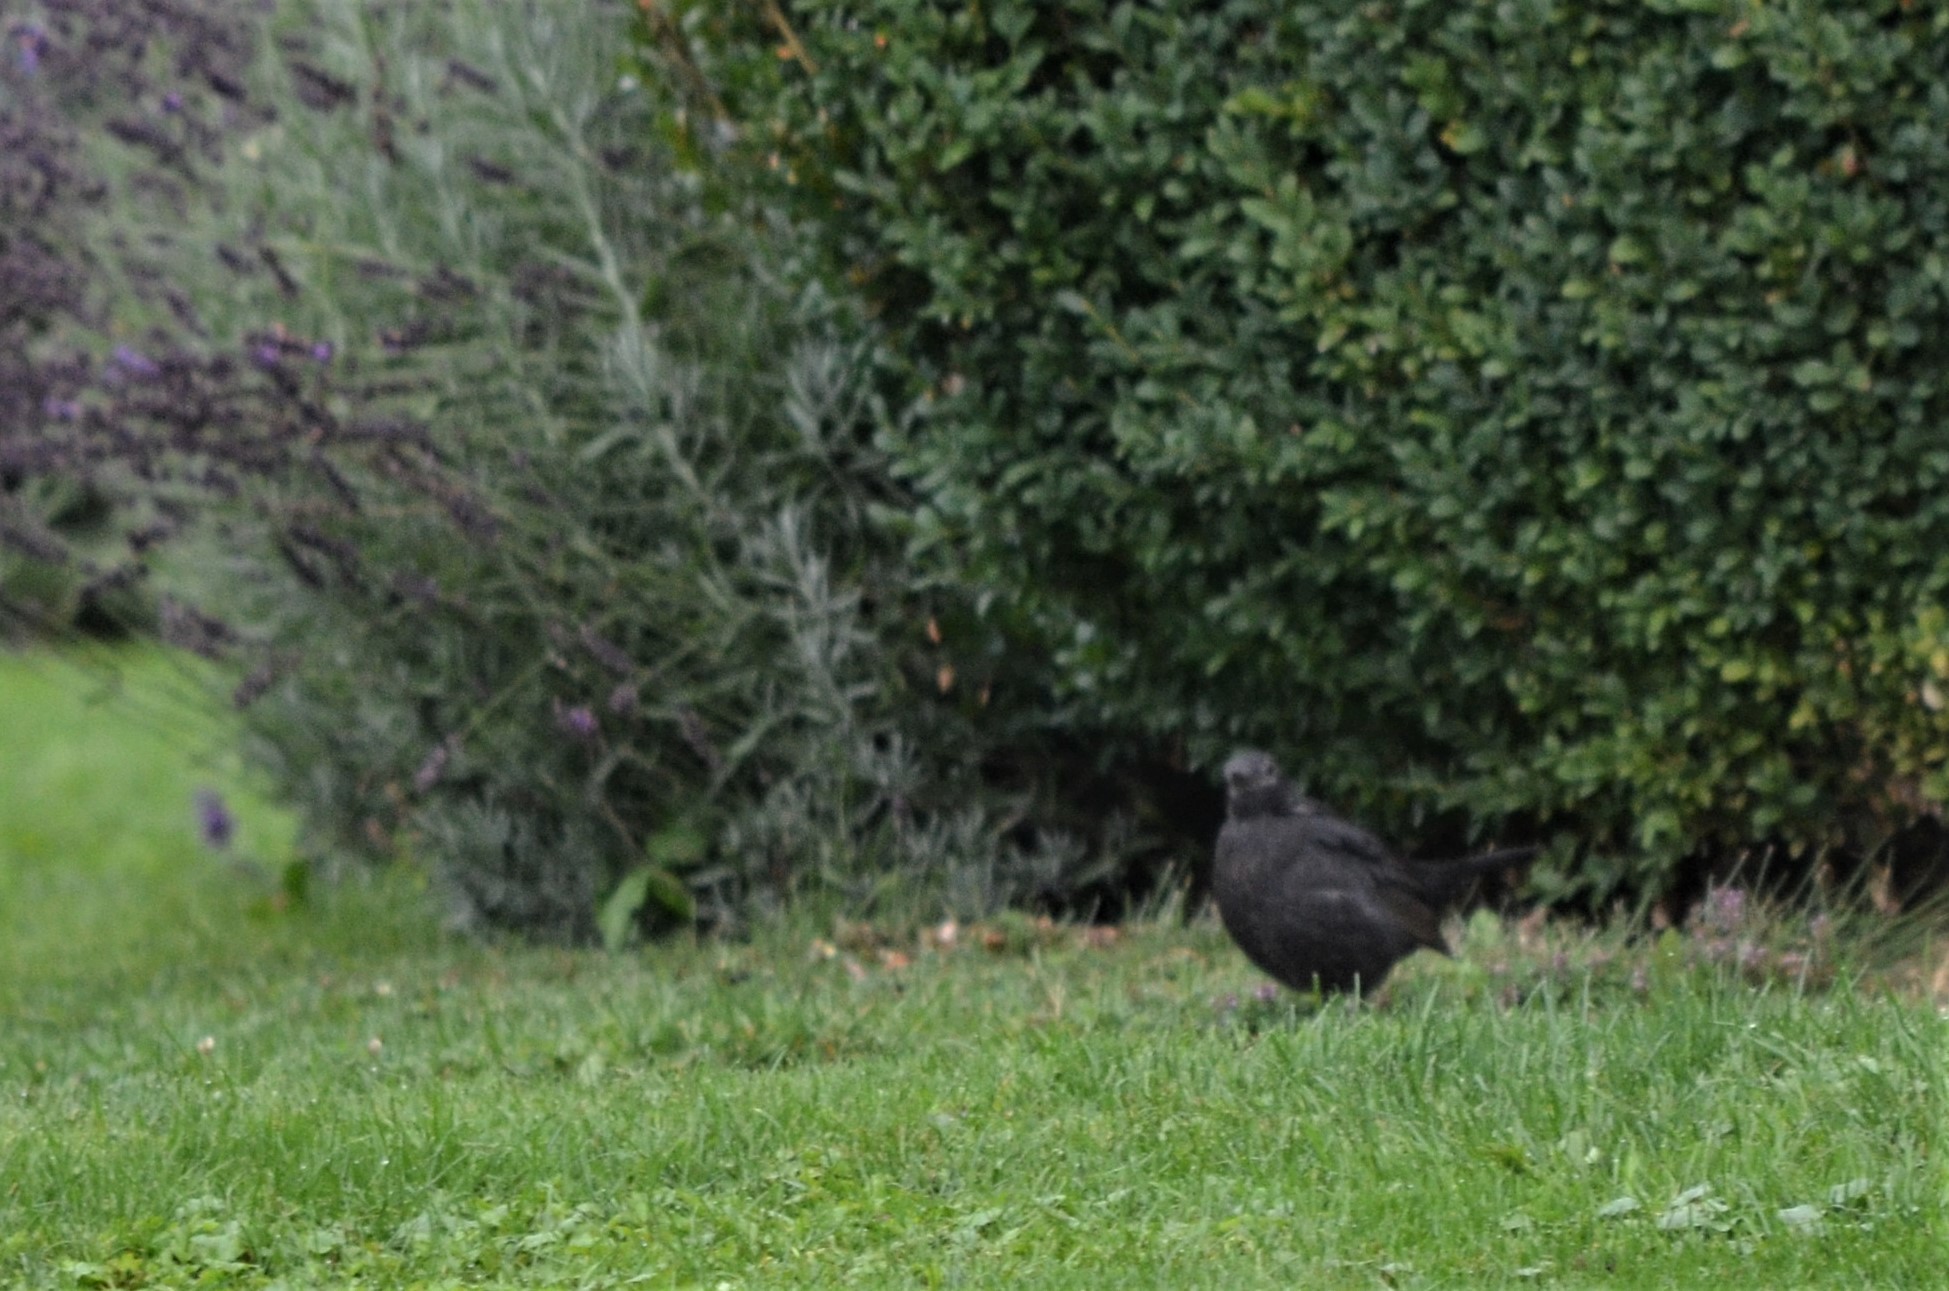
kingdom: Animalia
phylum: Chordata
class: Aves
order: Passeriformes
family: Turdidae
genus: Turdus
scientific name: Turdus merula
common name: Common blackbird
